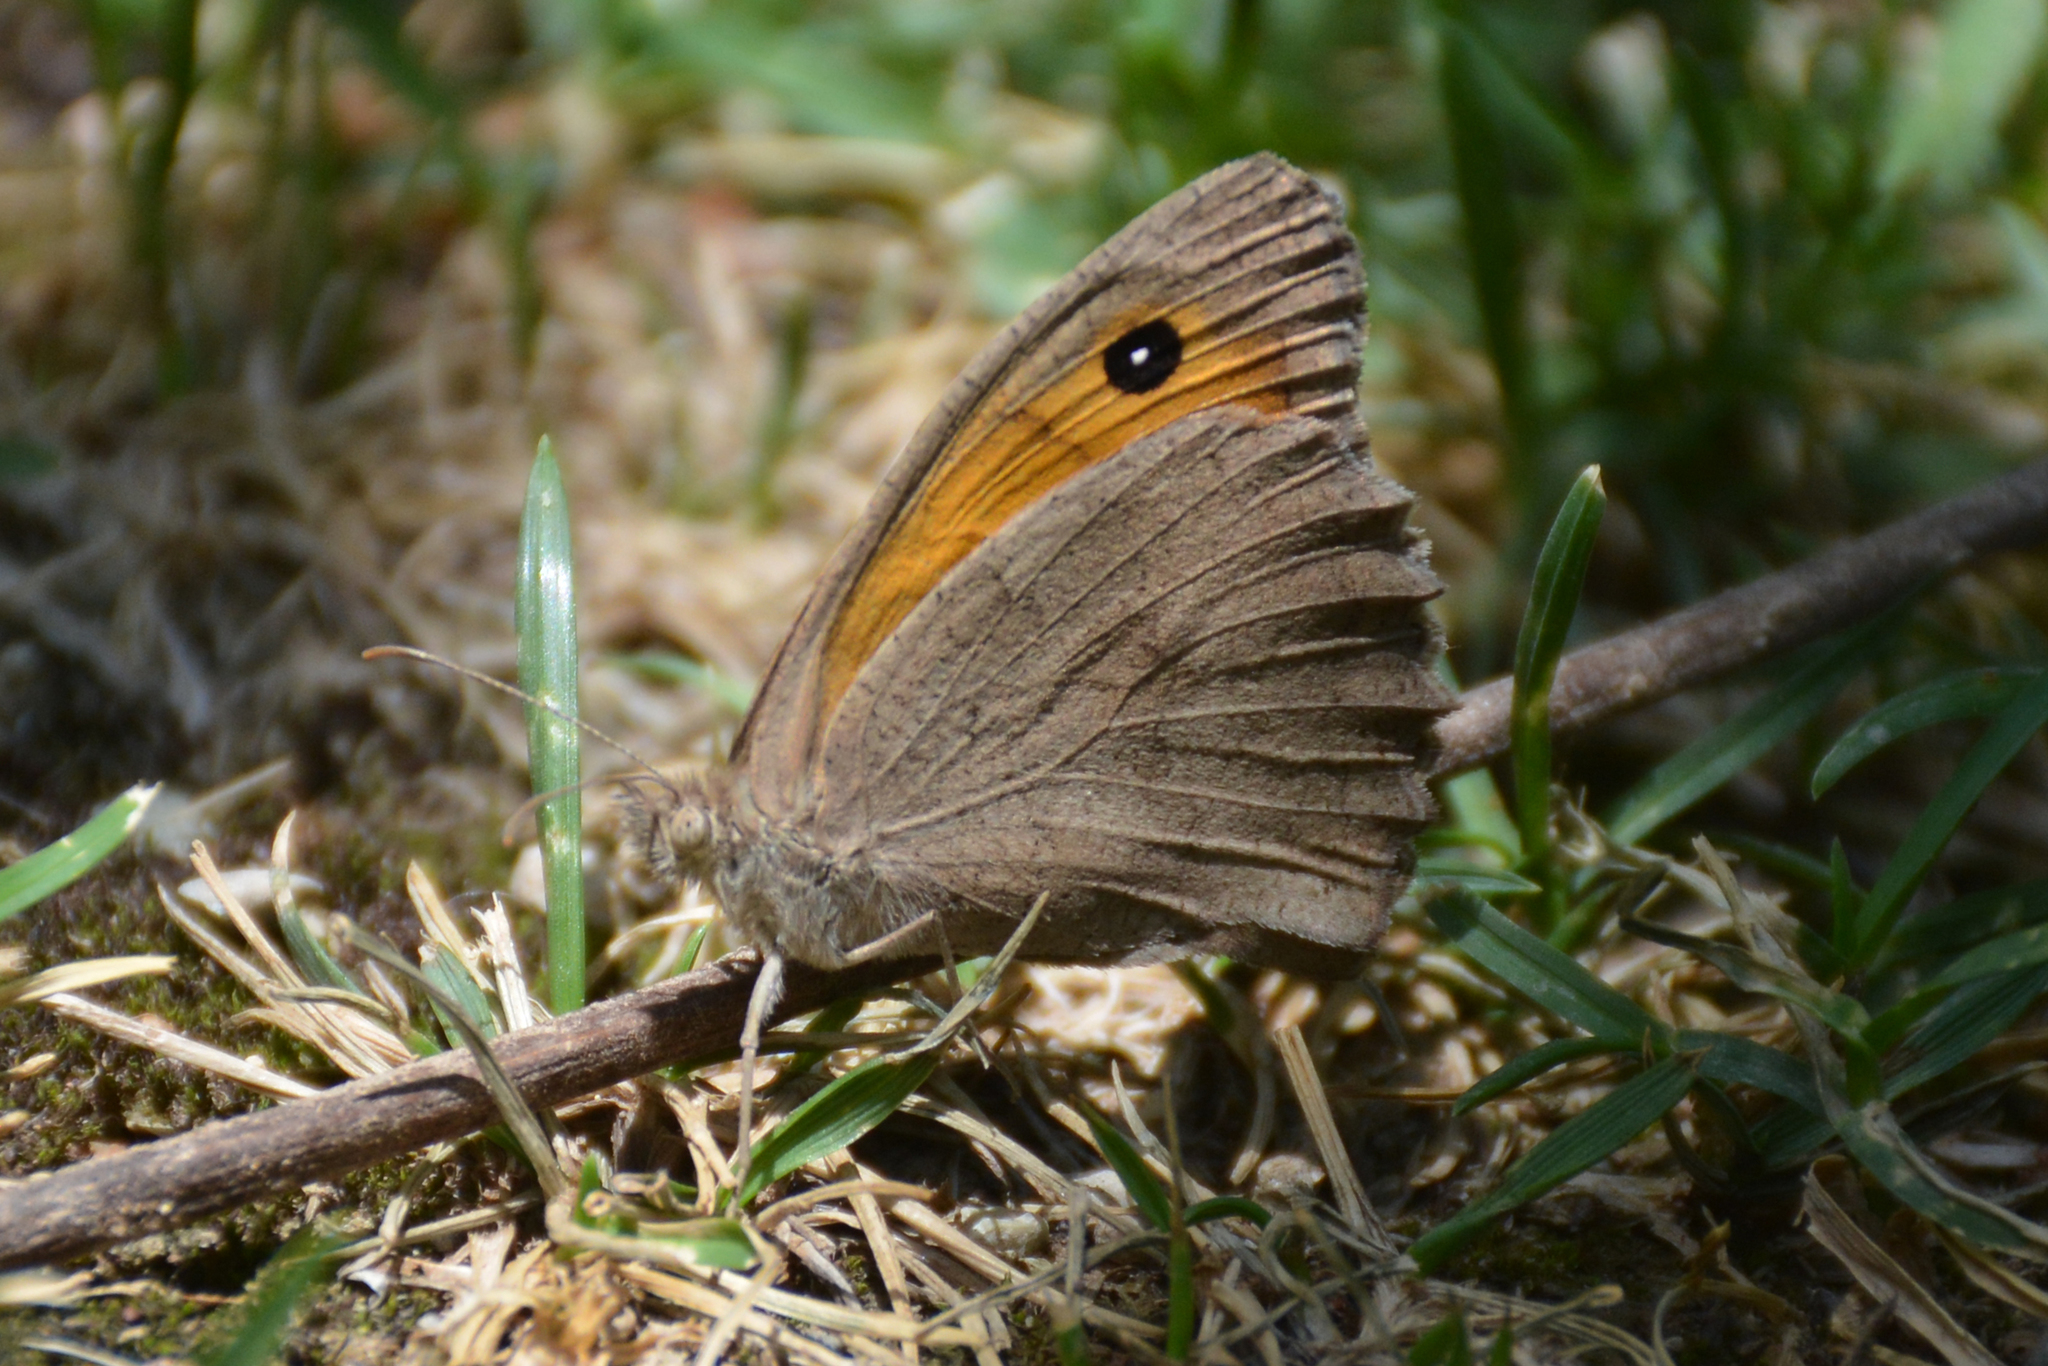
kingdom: Animalia
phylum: Arthropoda
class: Insecta
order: Lepidoptera
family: Nymphalidae
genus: Hyponephele
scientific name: Hyponephele lupinus
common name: Oriental meadow brown
